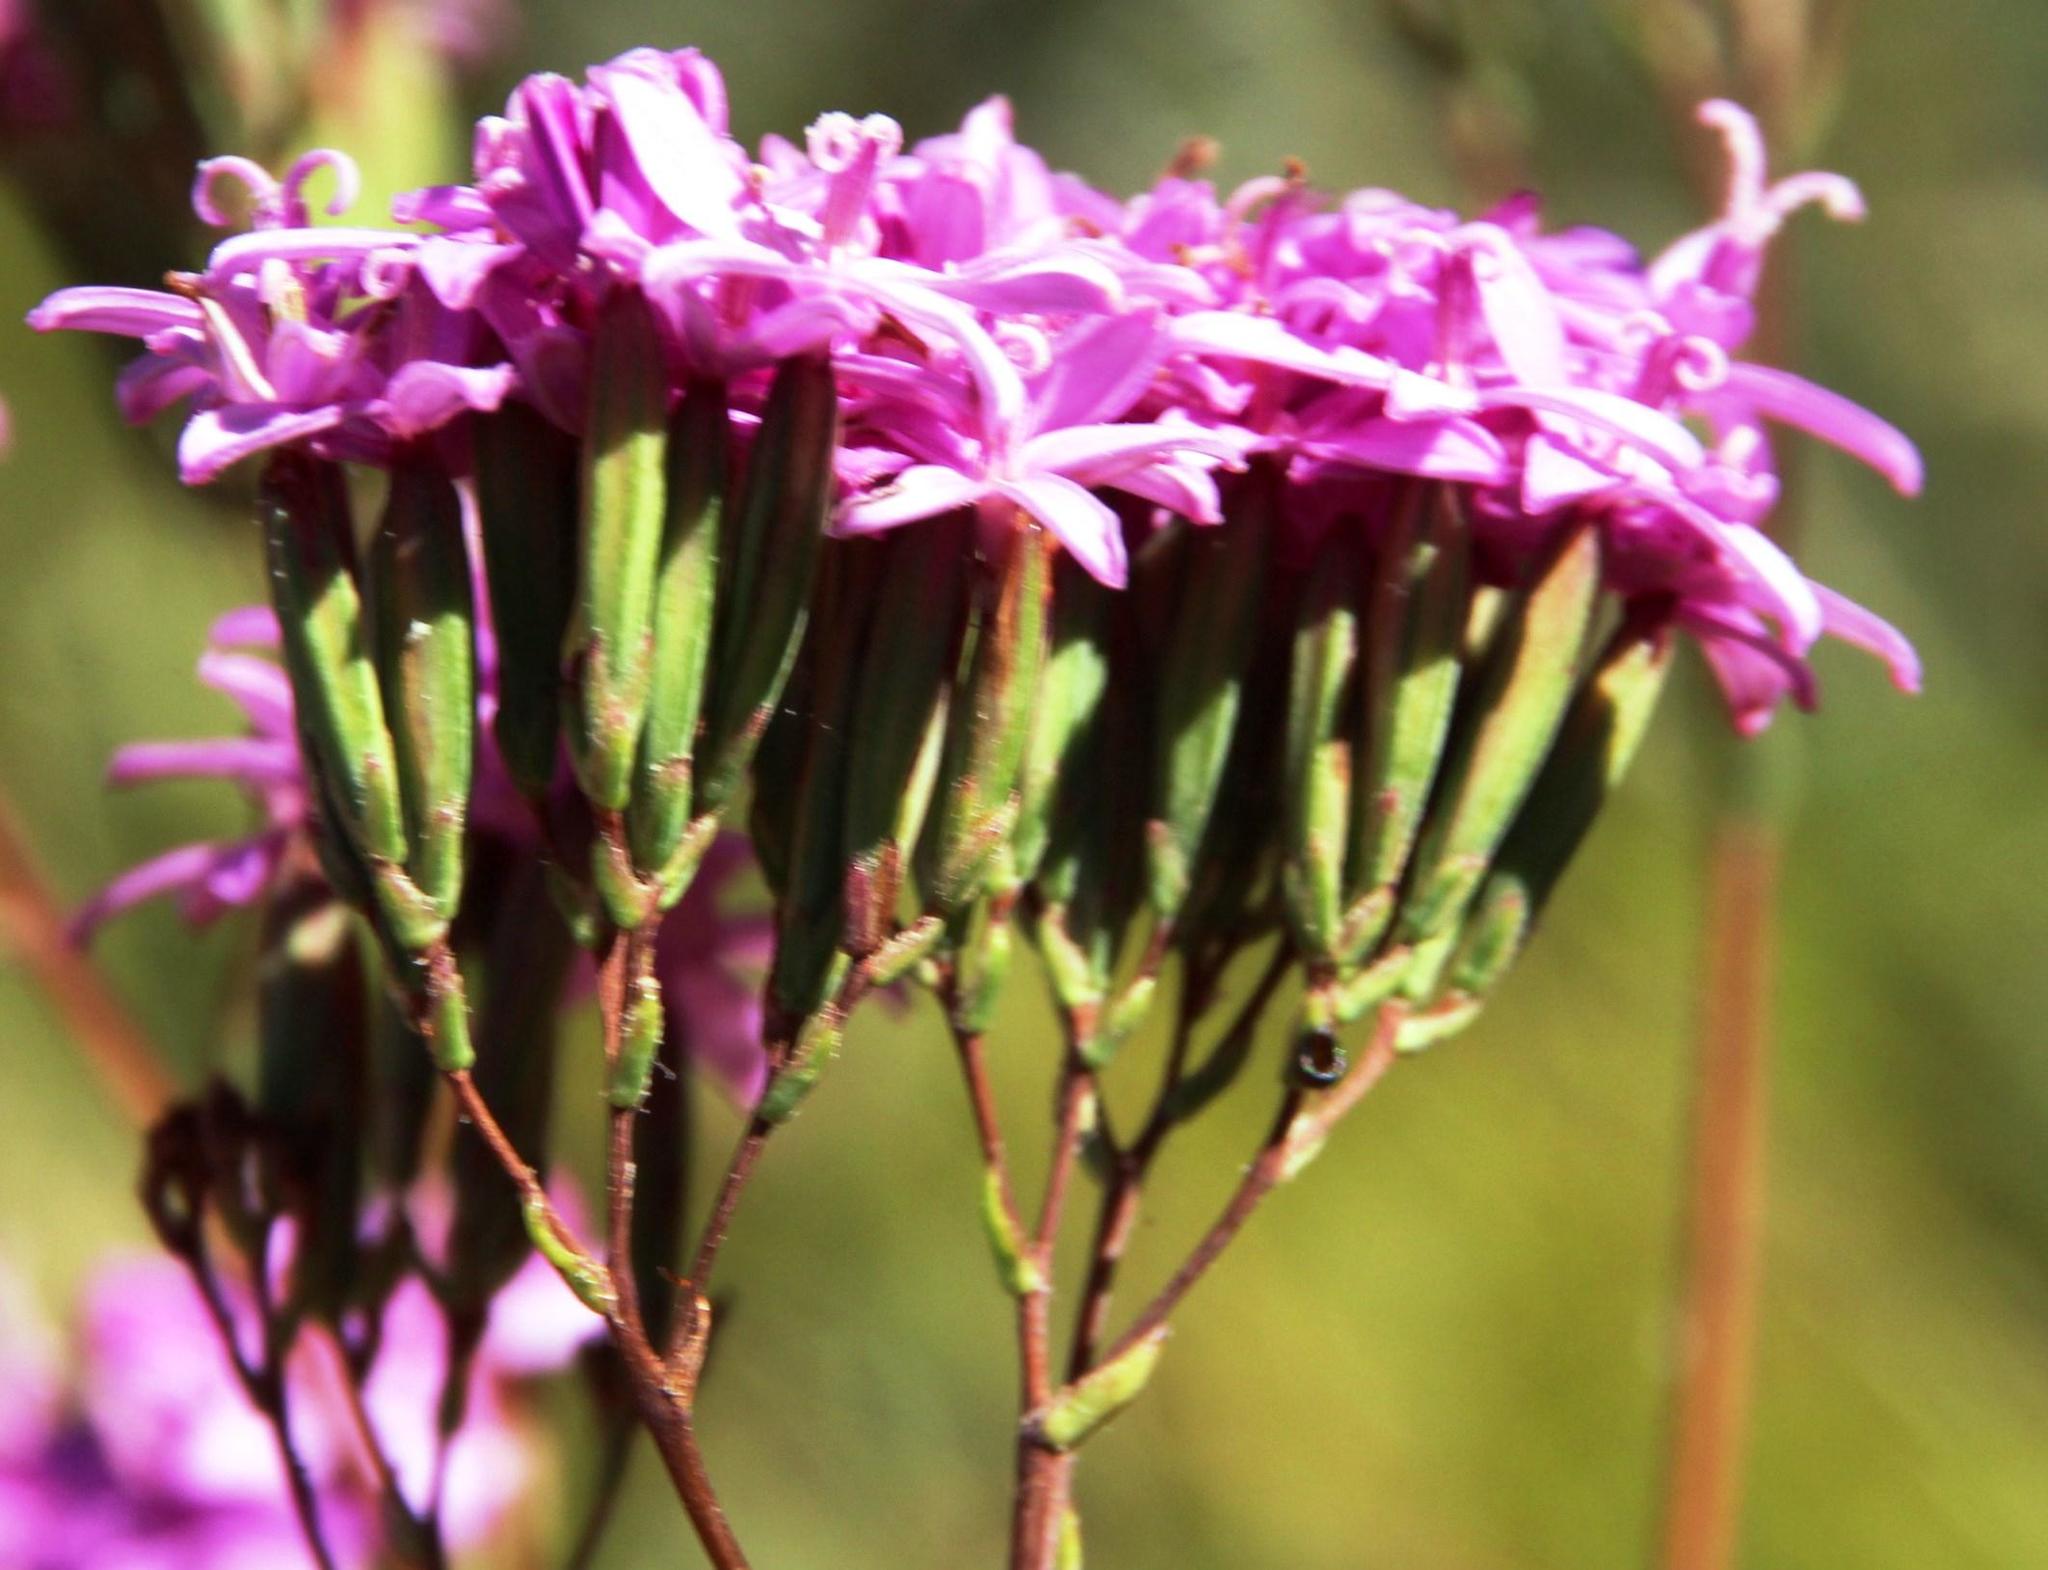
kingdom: Plantae
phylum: Tracheophyta
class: Magnoliopsida
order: Asterales
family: Asteraceae
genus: Corymbium
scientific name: Corymbium glabrum
